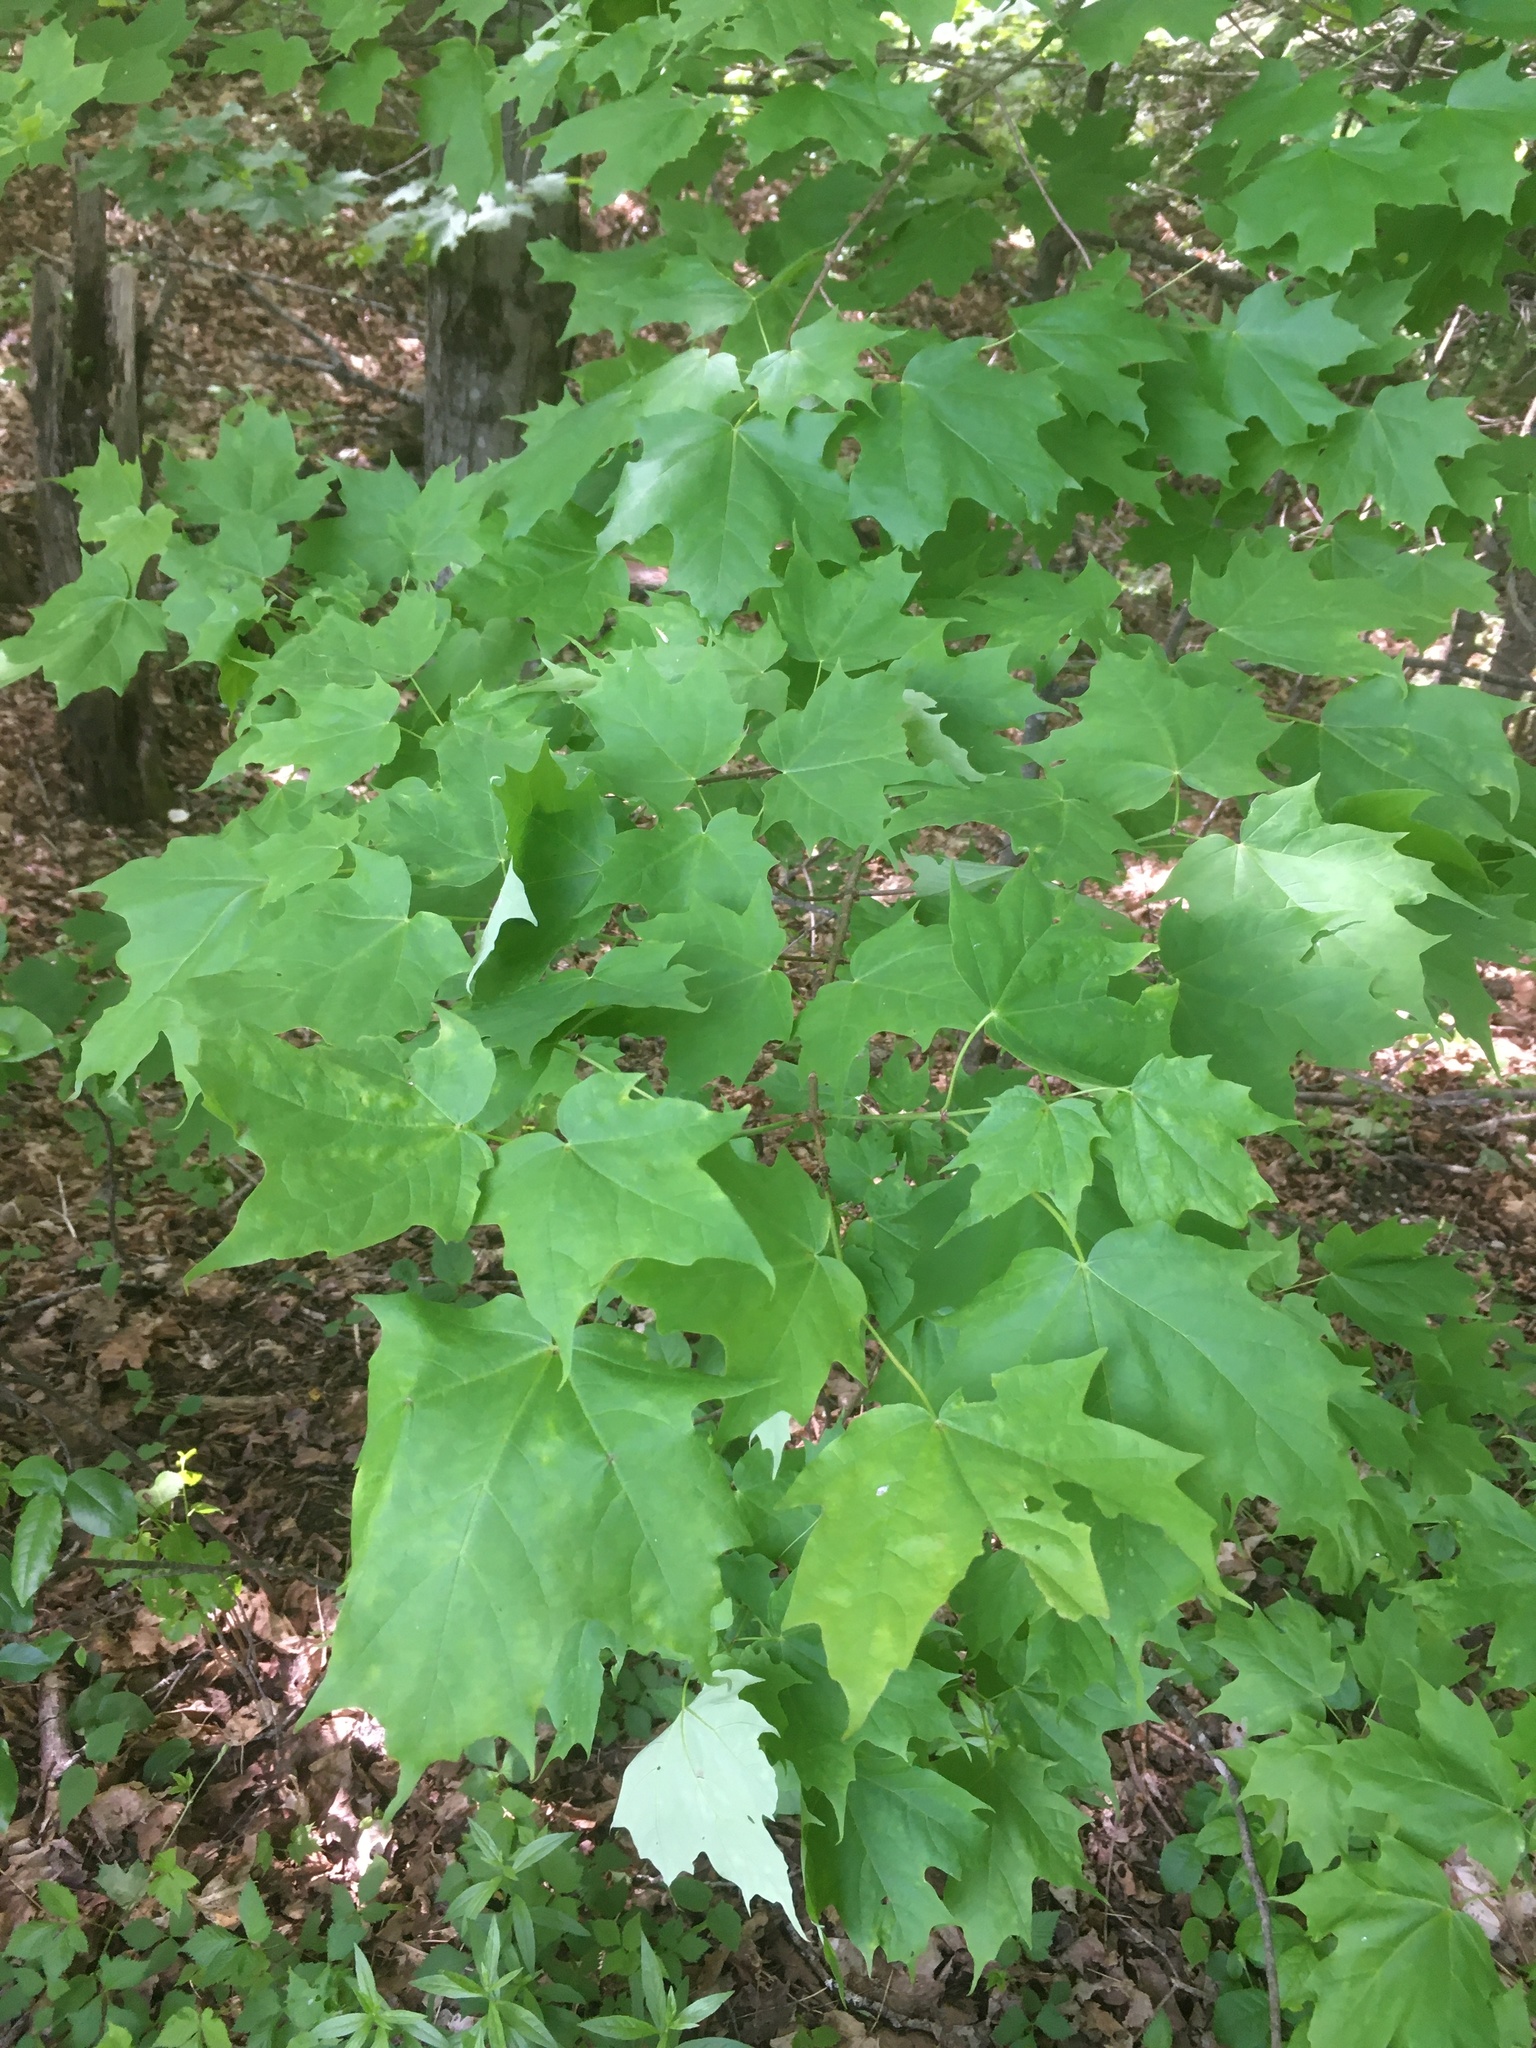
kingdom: Plantae
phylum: Tracheophyta
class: Magnoliopsida
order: Sapindales
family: Sapindaceae
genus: Acer
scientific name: Acer saccharum
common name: Sugar maple
